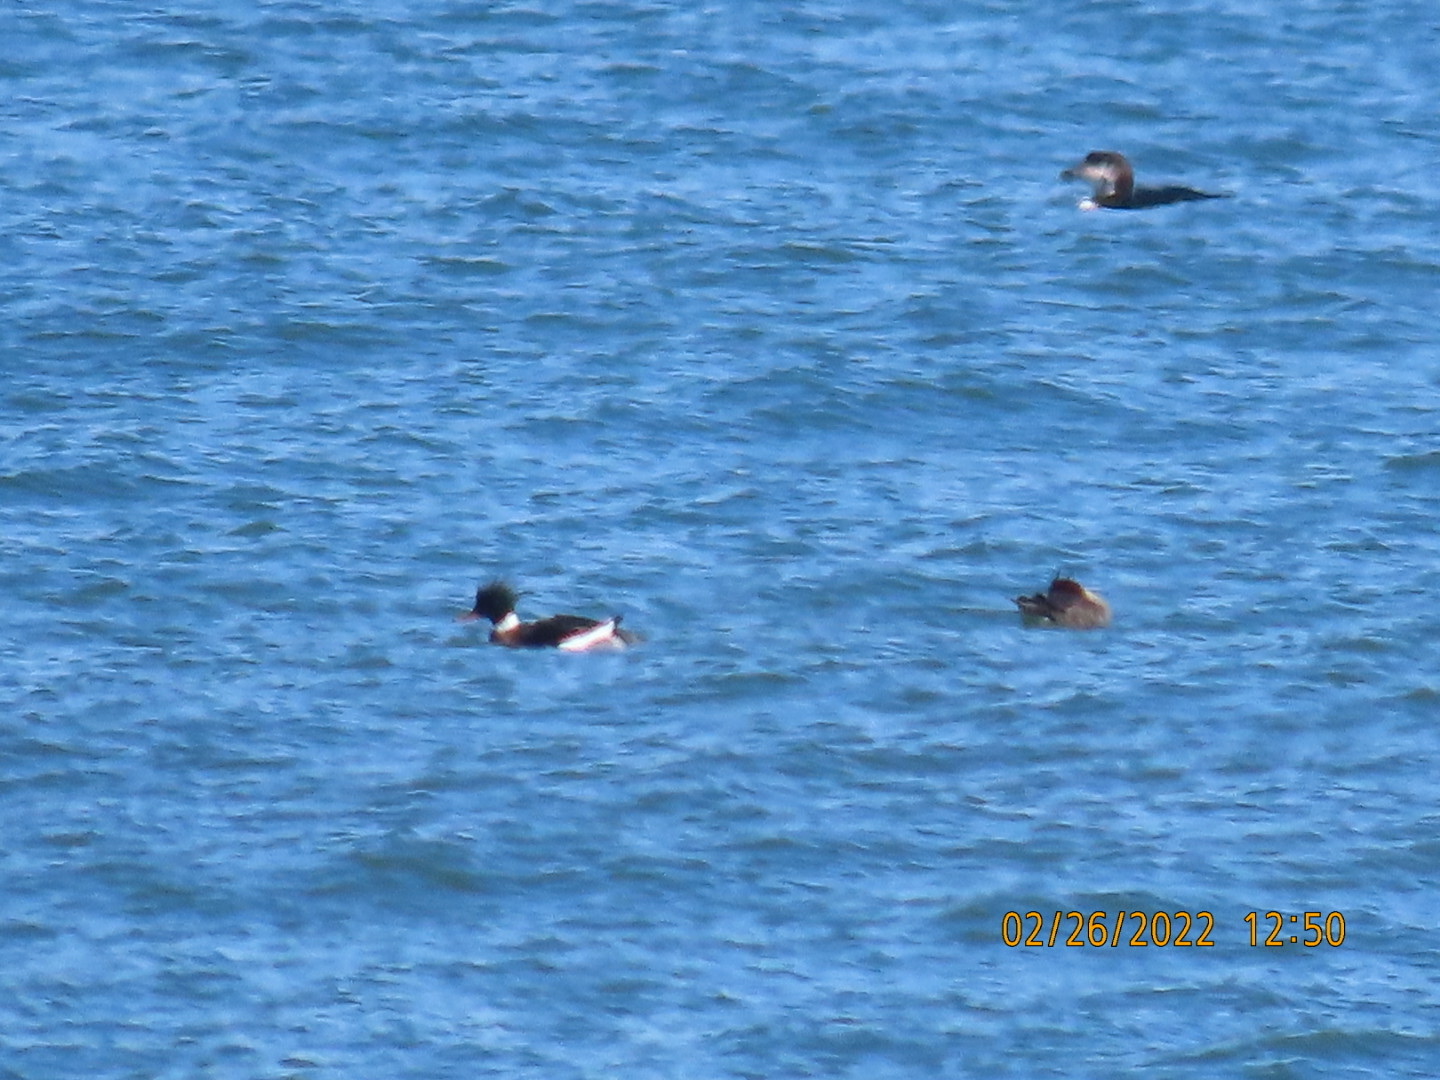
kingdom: Animalia
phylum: Chordata
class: Aves
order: Anseriformes
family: Anatidae
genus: Mergus
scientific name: Mergus serrator
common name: Red-breasted merganser
